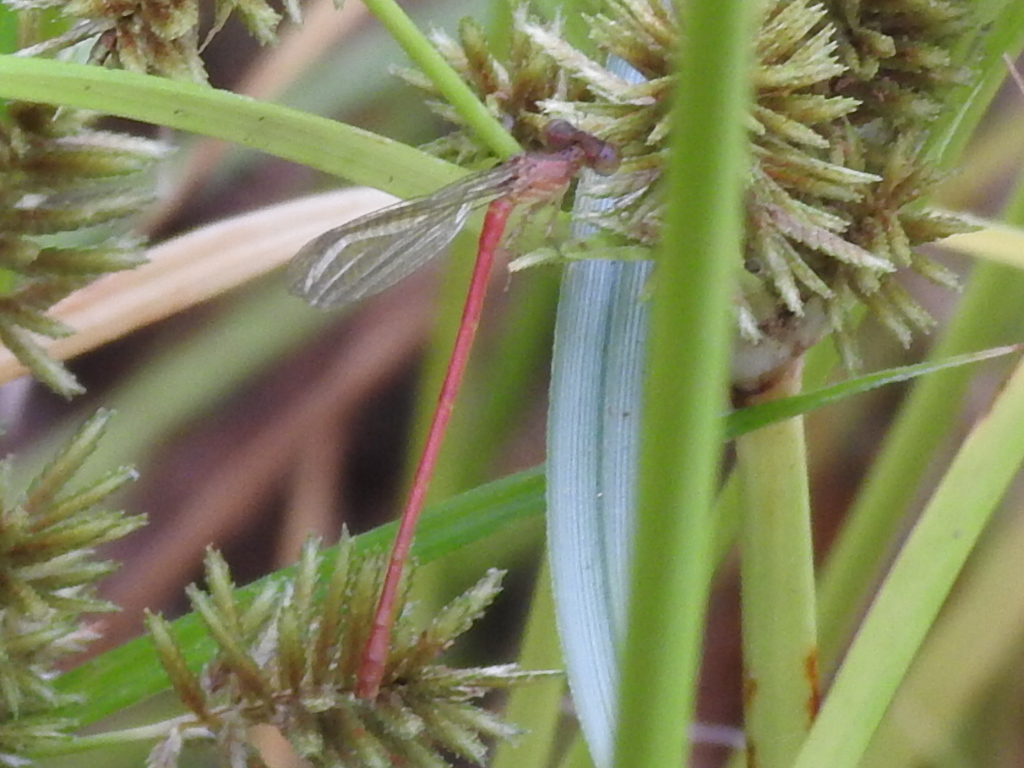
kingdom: Animalia
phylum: Arthropoda
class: Insecta
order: Odonata
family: Coenagrionidae
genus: Telebasis
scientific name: Telebasis salva
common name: Desert firetail
